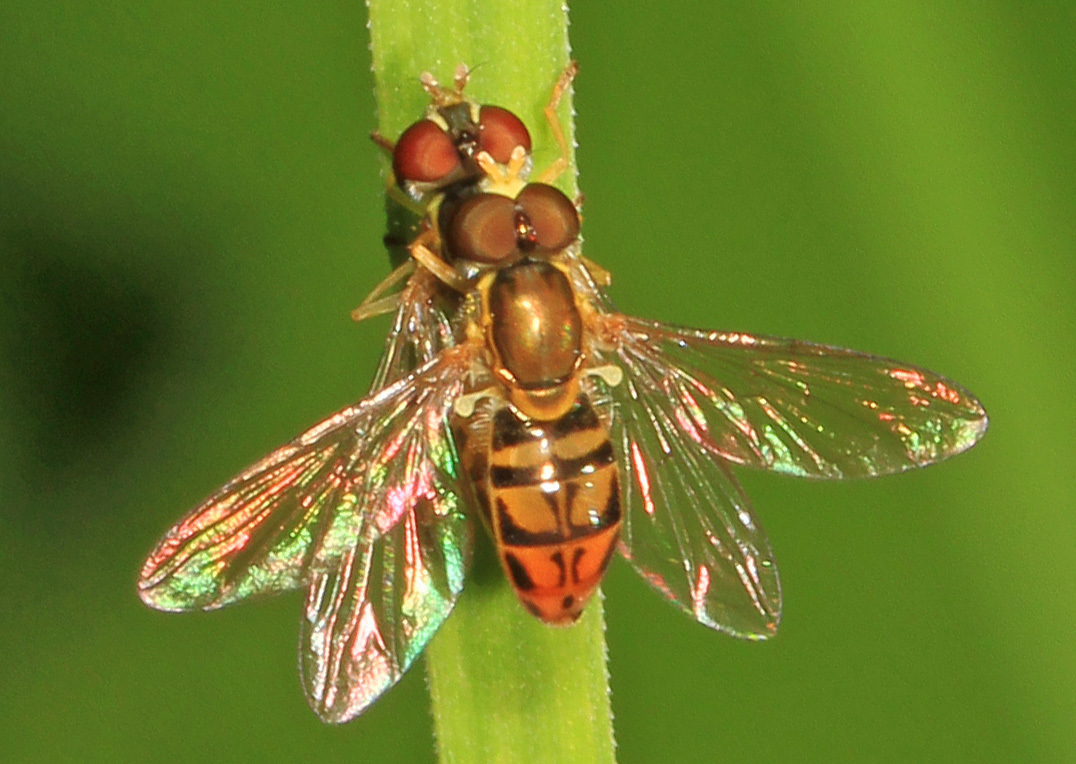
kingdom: Animalia
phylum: Arthropoda
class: Insecta
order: Diptera
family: Syrphidae
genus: Toxomerus
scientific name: Toxomerus marginatus
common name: Syrphid fly
